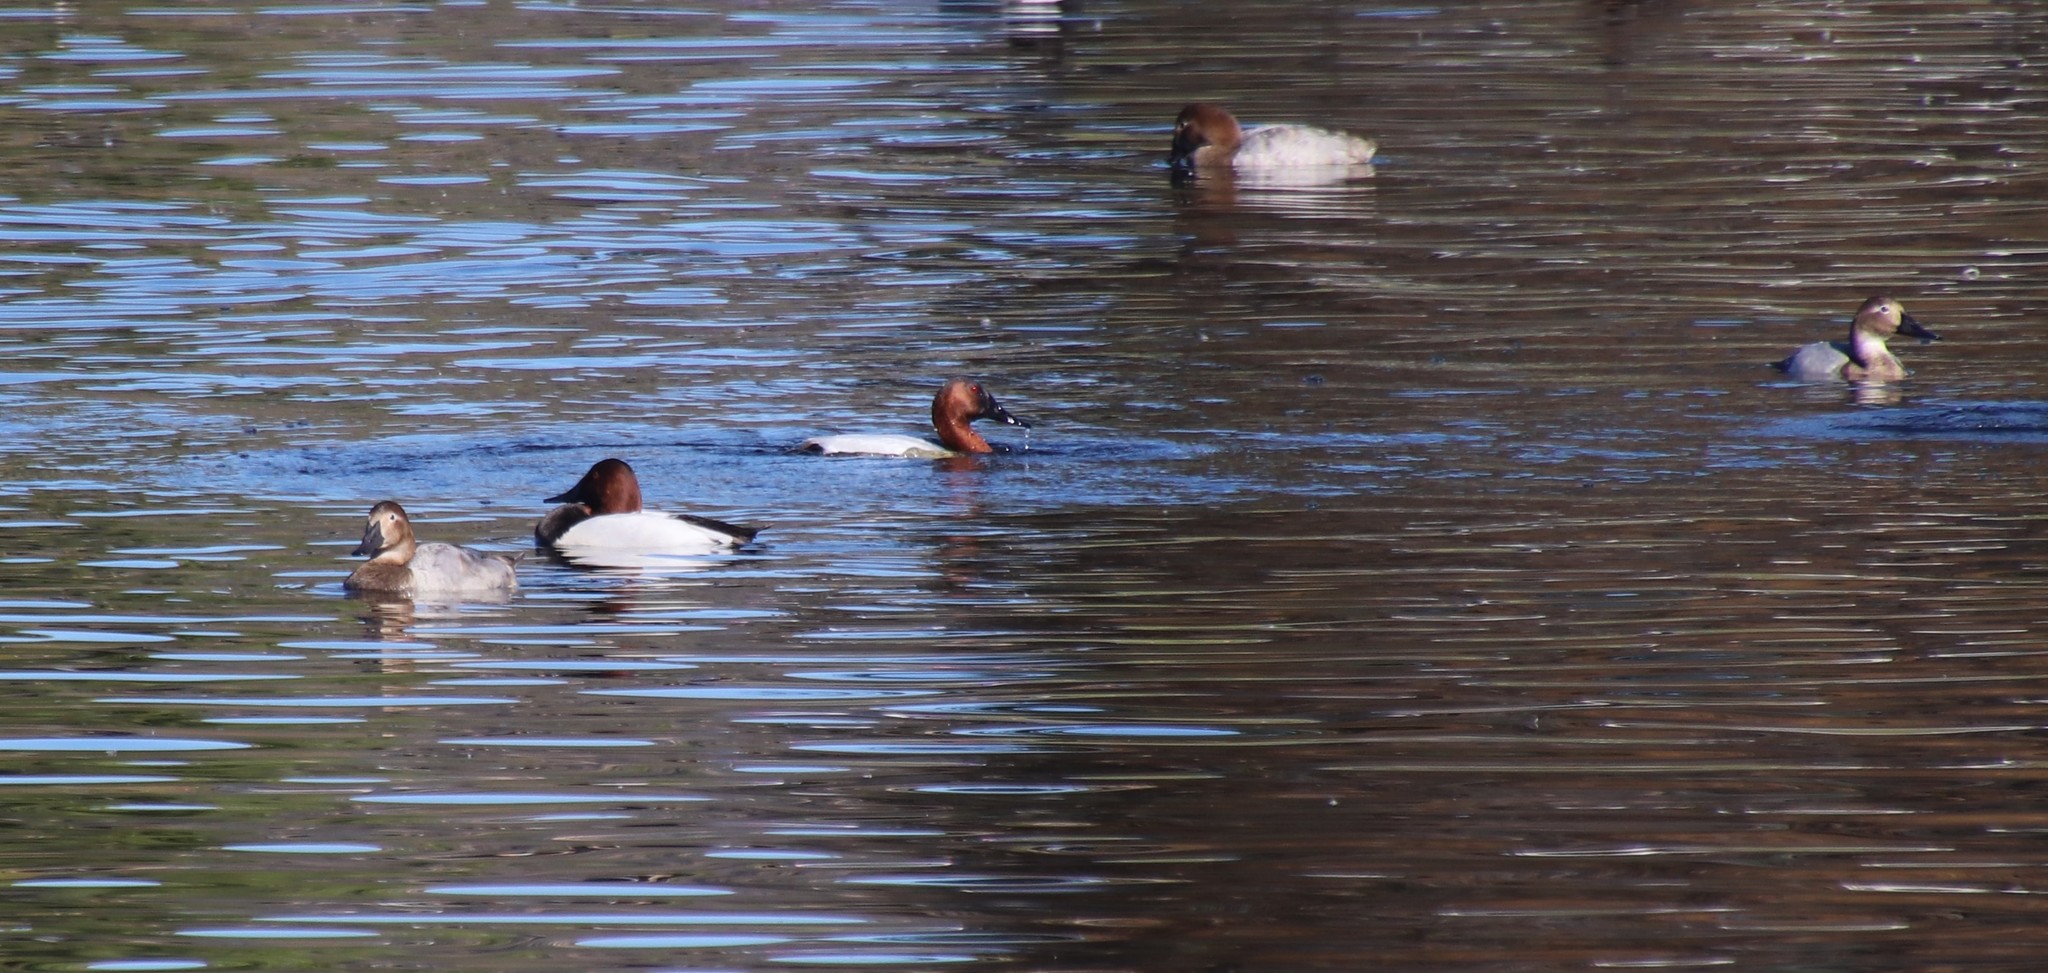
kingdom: Animalia
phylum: Chordata
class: Aves
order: Anseriformes
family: Anatidae
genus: Aythya
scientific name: Aythya valisineria
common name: Canvasback
